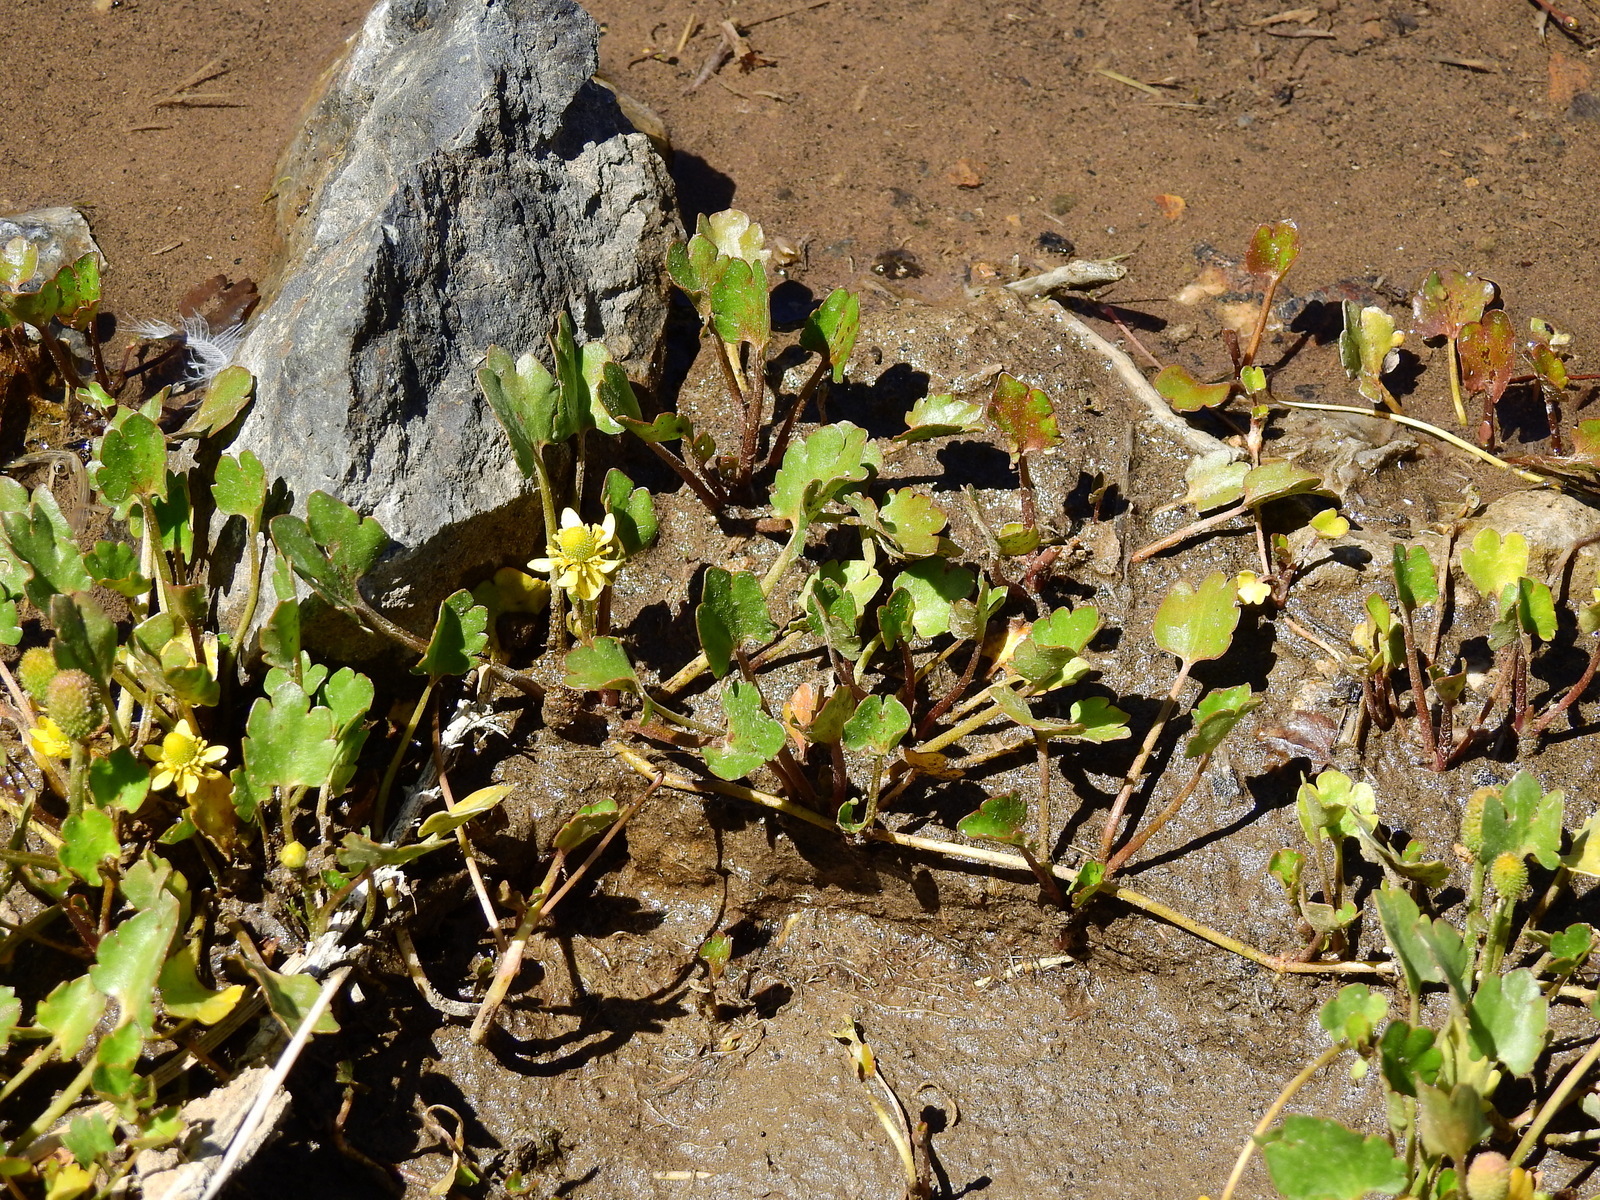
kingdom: Plantae
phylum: Tracheophyta
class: Magnoliopsida
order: Ranunculales
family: Ranunculaceae
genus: Halerpestes
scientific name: Halerpestes cymbalaria
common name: Seaside crowfoot
